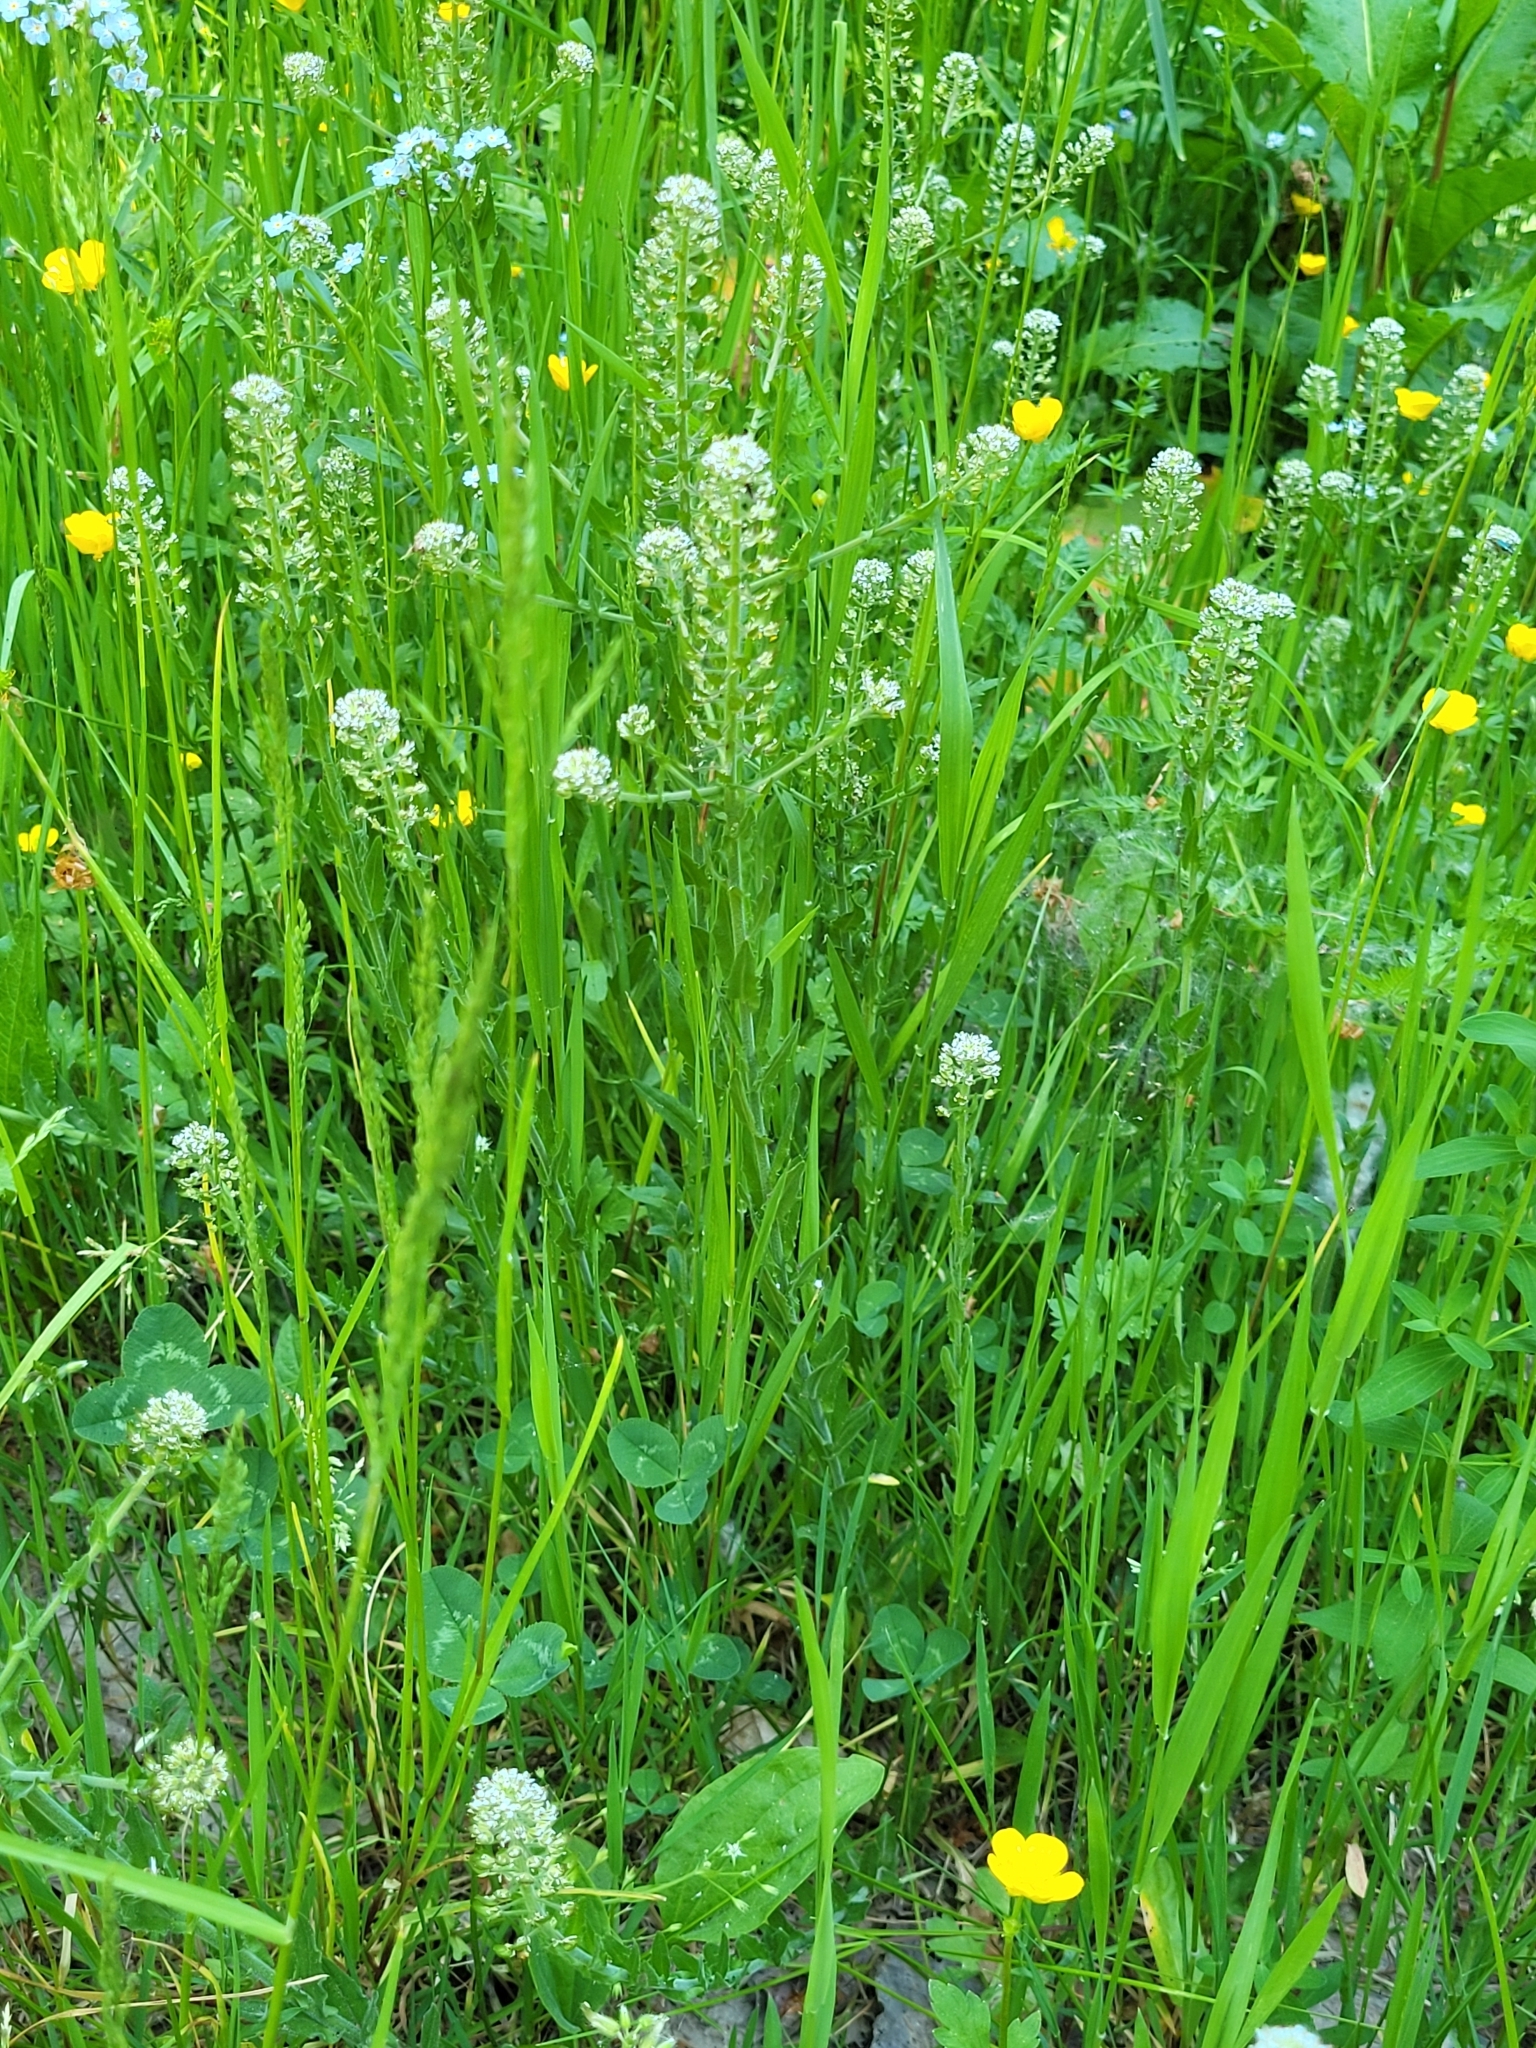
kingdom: Plantae
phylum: Tracheophyta
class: Magnoliopsida
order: Brassicales
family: Brassicaceae
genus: Lepidium
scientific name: Lepidium heterophyllum
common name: Smith's pepperwort
